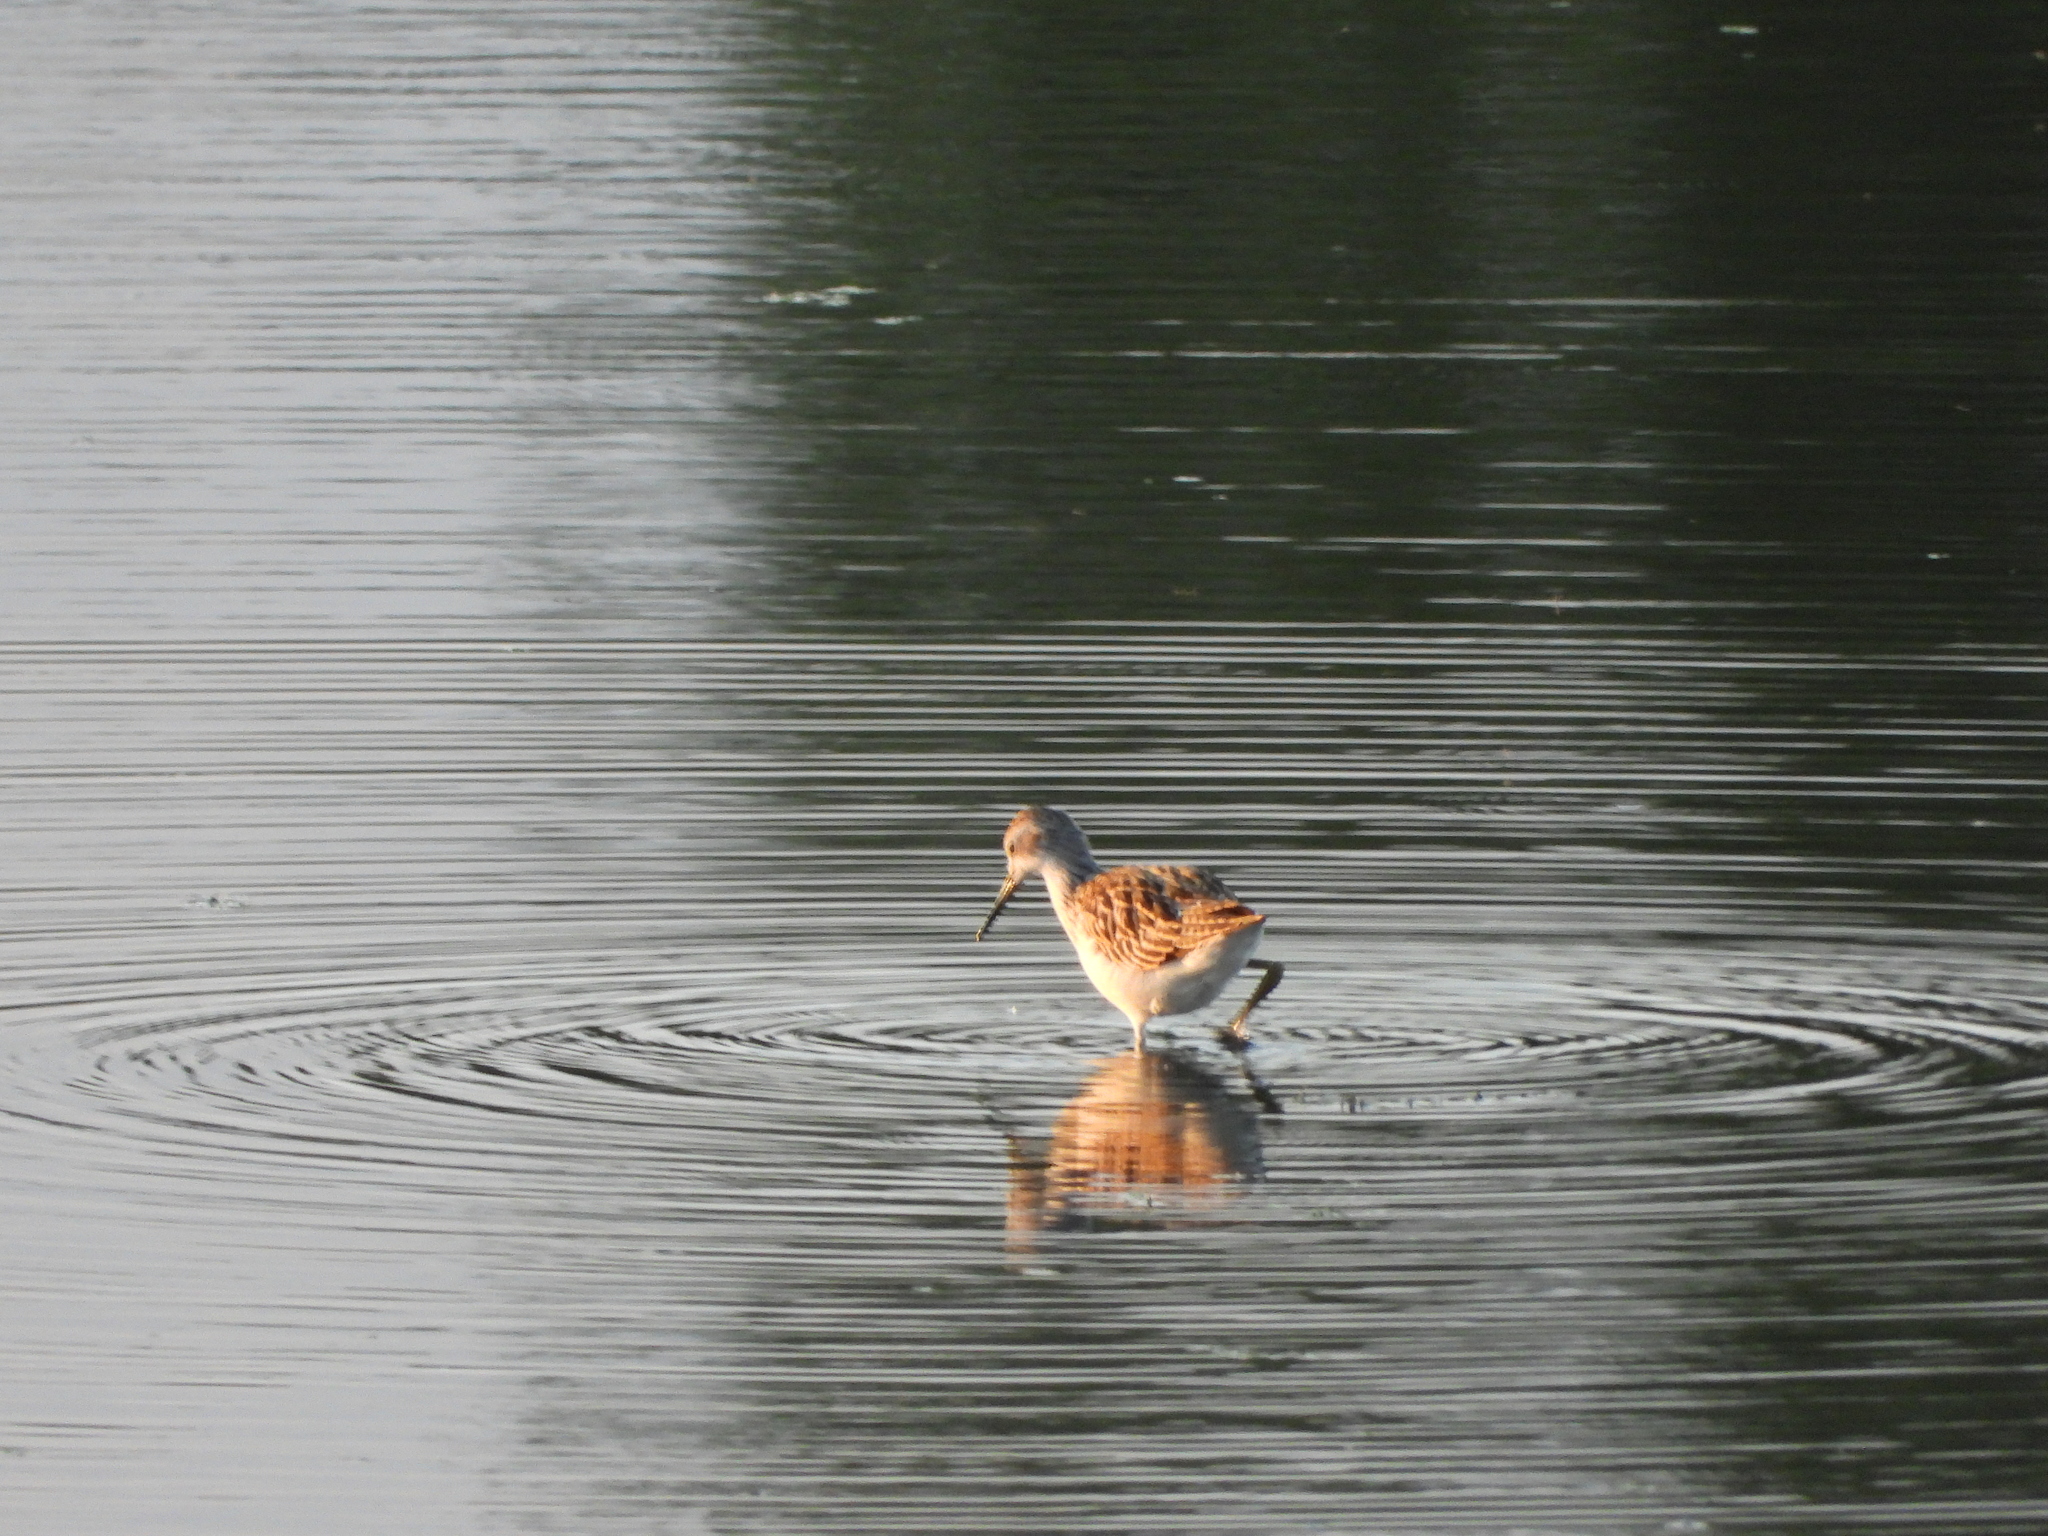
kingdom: Animalia
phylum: Chordata
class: Aves
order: Charadriiformes
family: Scolopacidae
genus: Calidris
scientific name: Calidris pugnax
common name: Ruff
